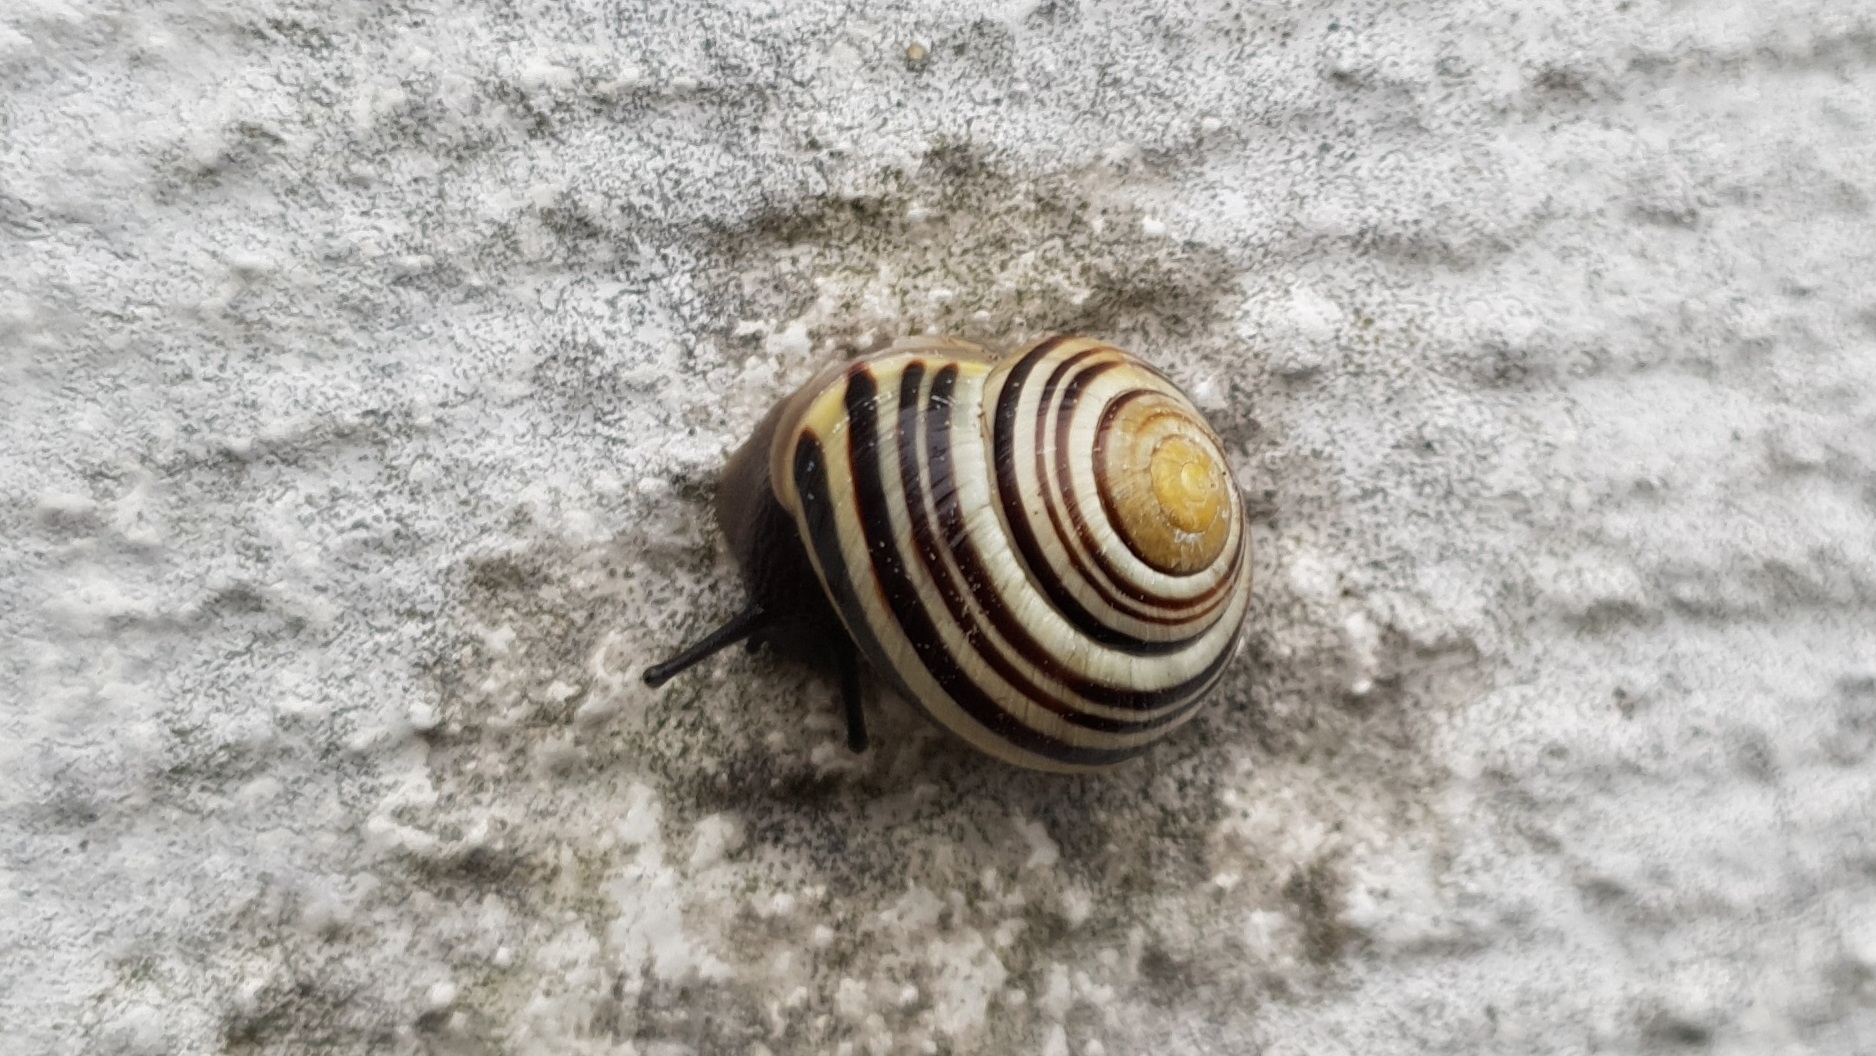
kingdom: Animalia
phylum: Mollusca
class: Gastropoda
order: Stylommatophora
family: Helicidae
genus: Cepaea
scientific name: Cepaea hortensis
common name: White-lip gardensnail
